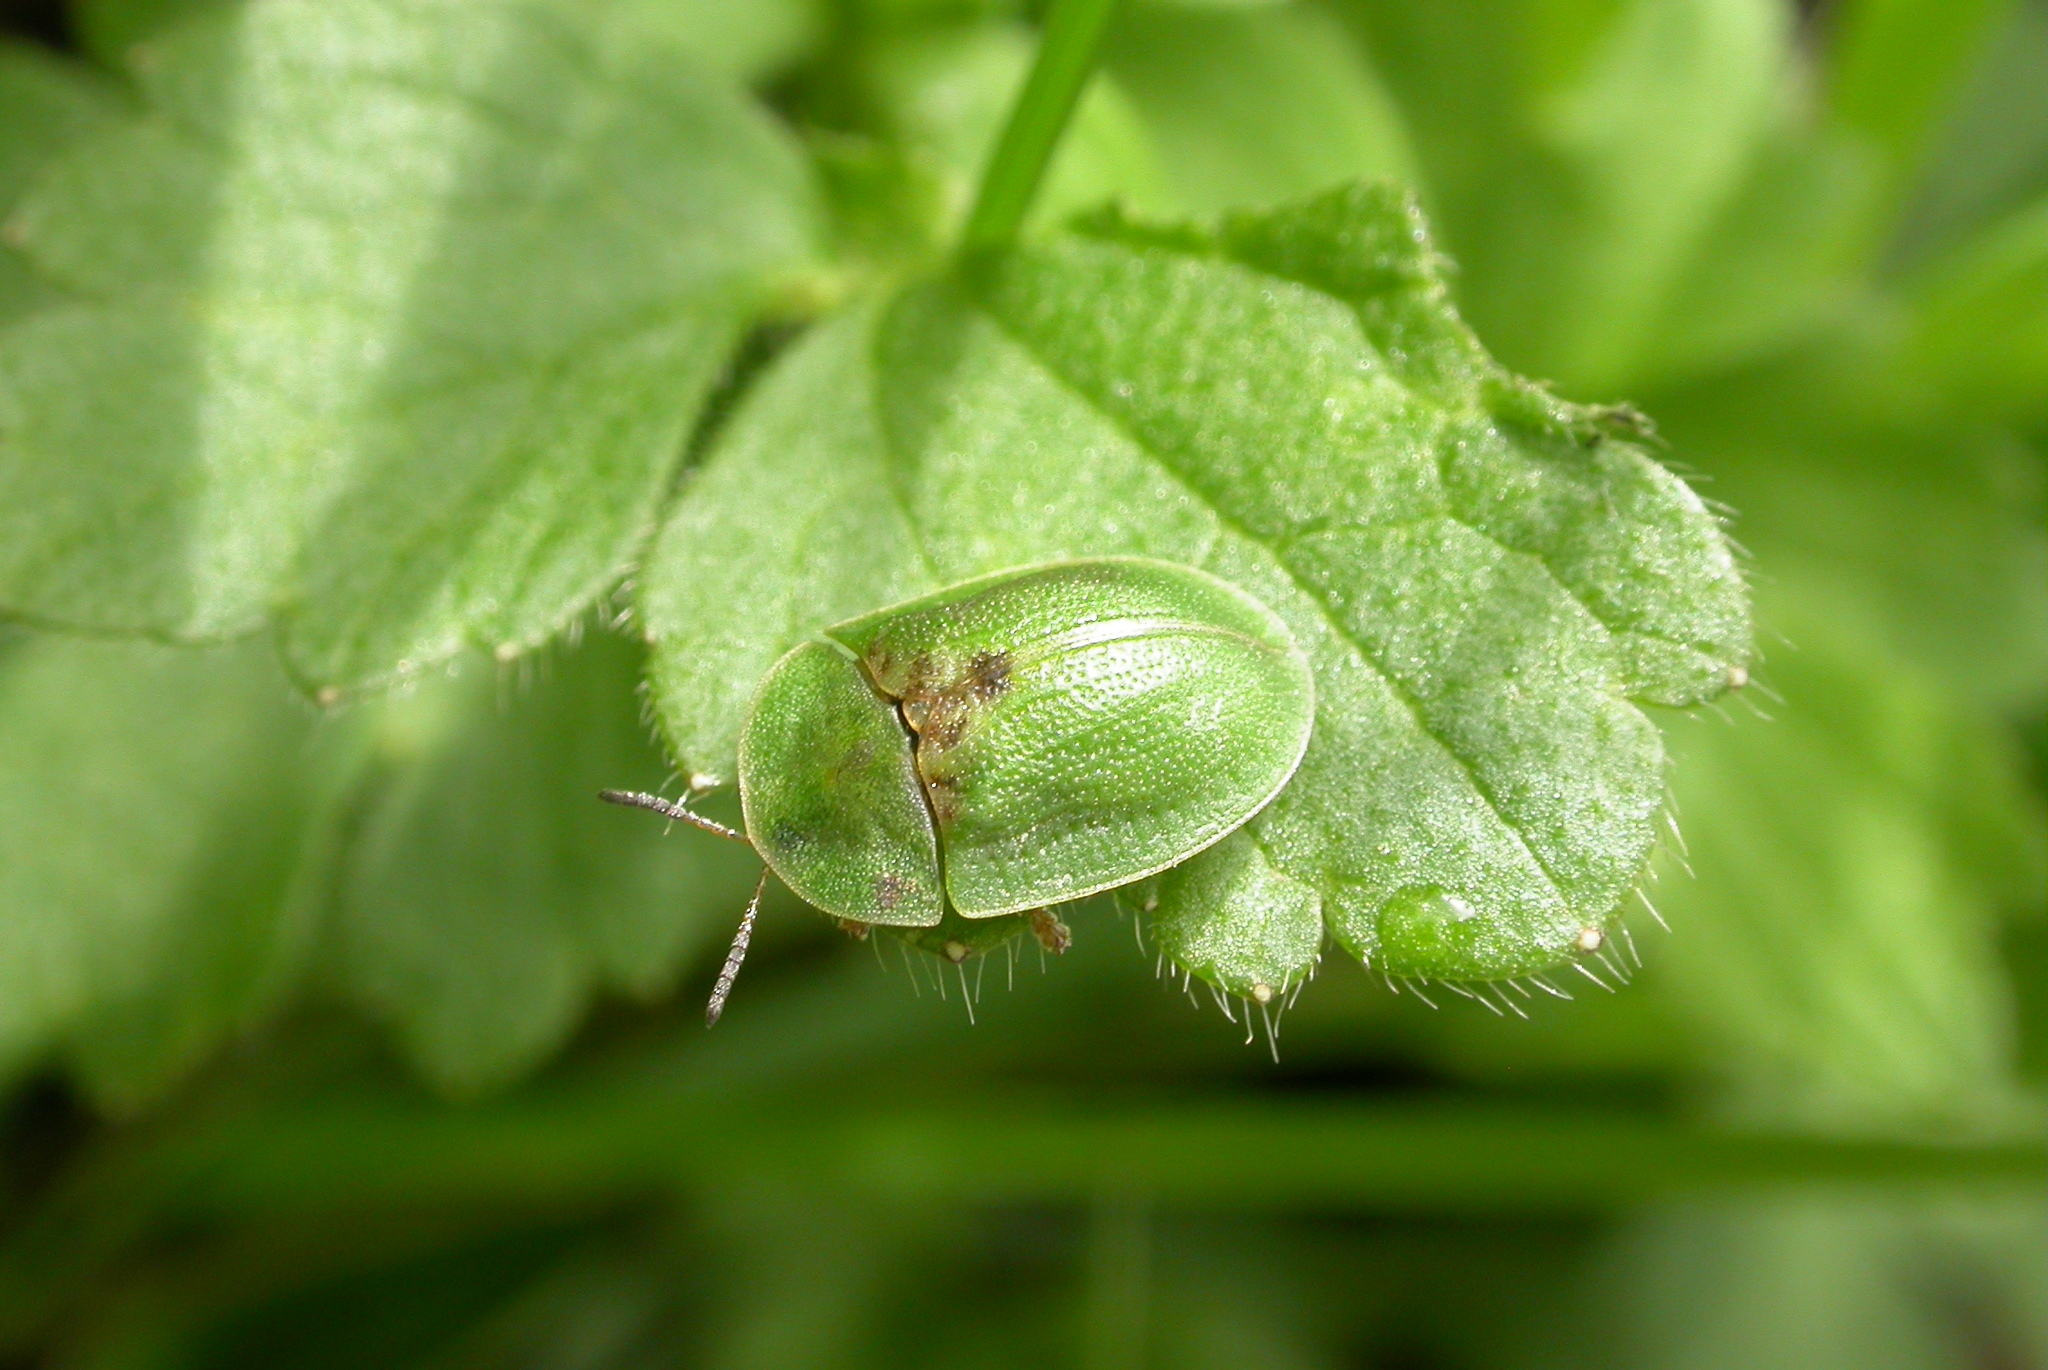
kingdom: Animalia
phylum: Arthropoda
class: Insecta
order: Coleoptera
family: Chrysomelidae
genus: Cassida
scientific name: Cassida rubiginosa
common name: Thistle tortoise beetle
